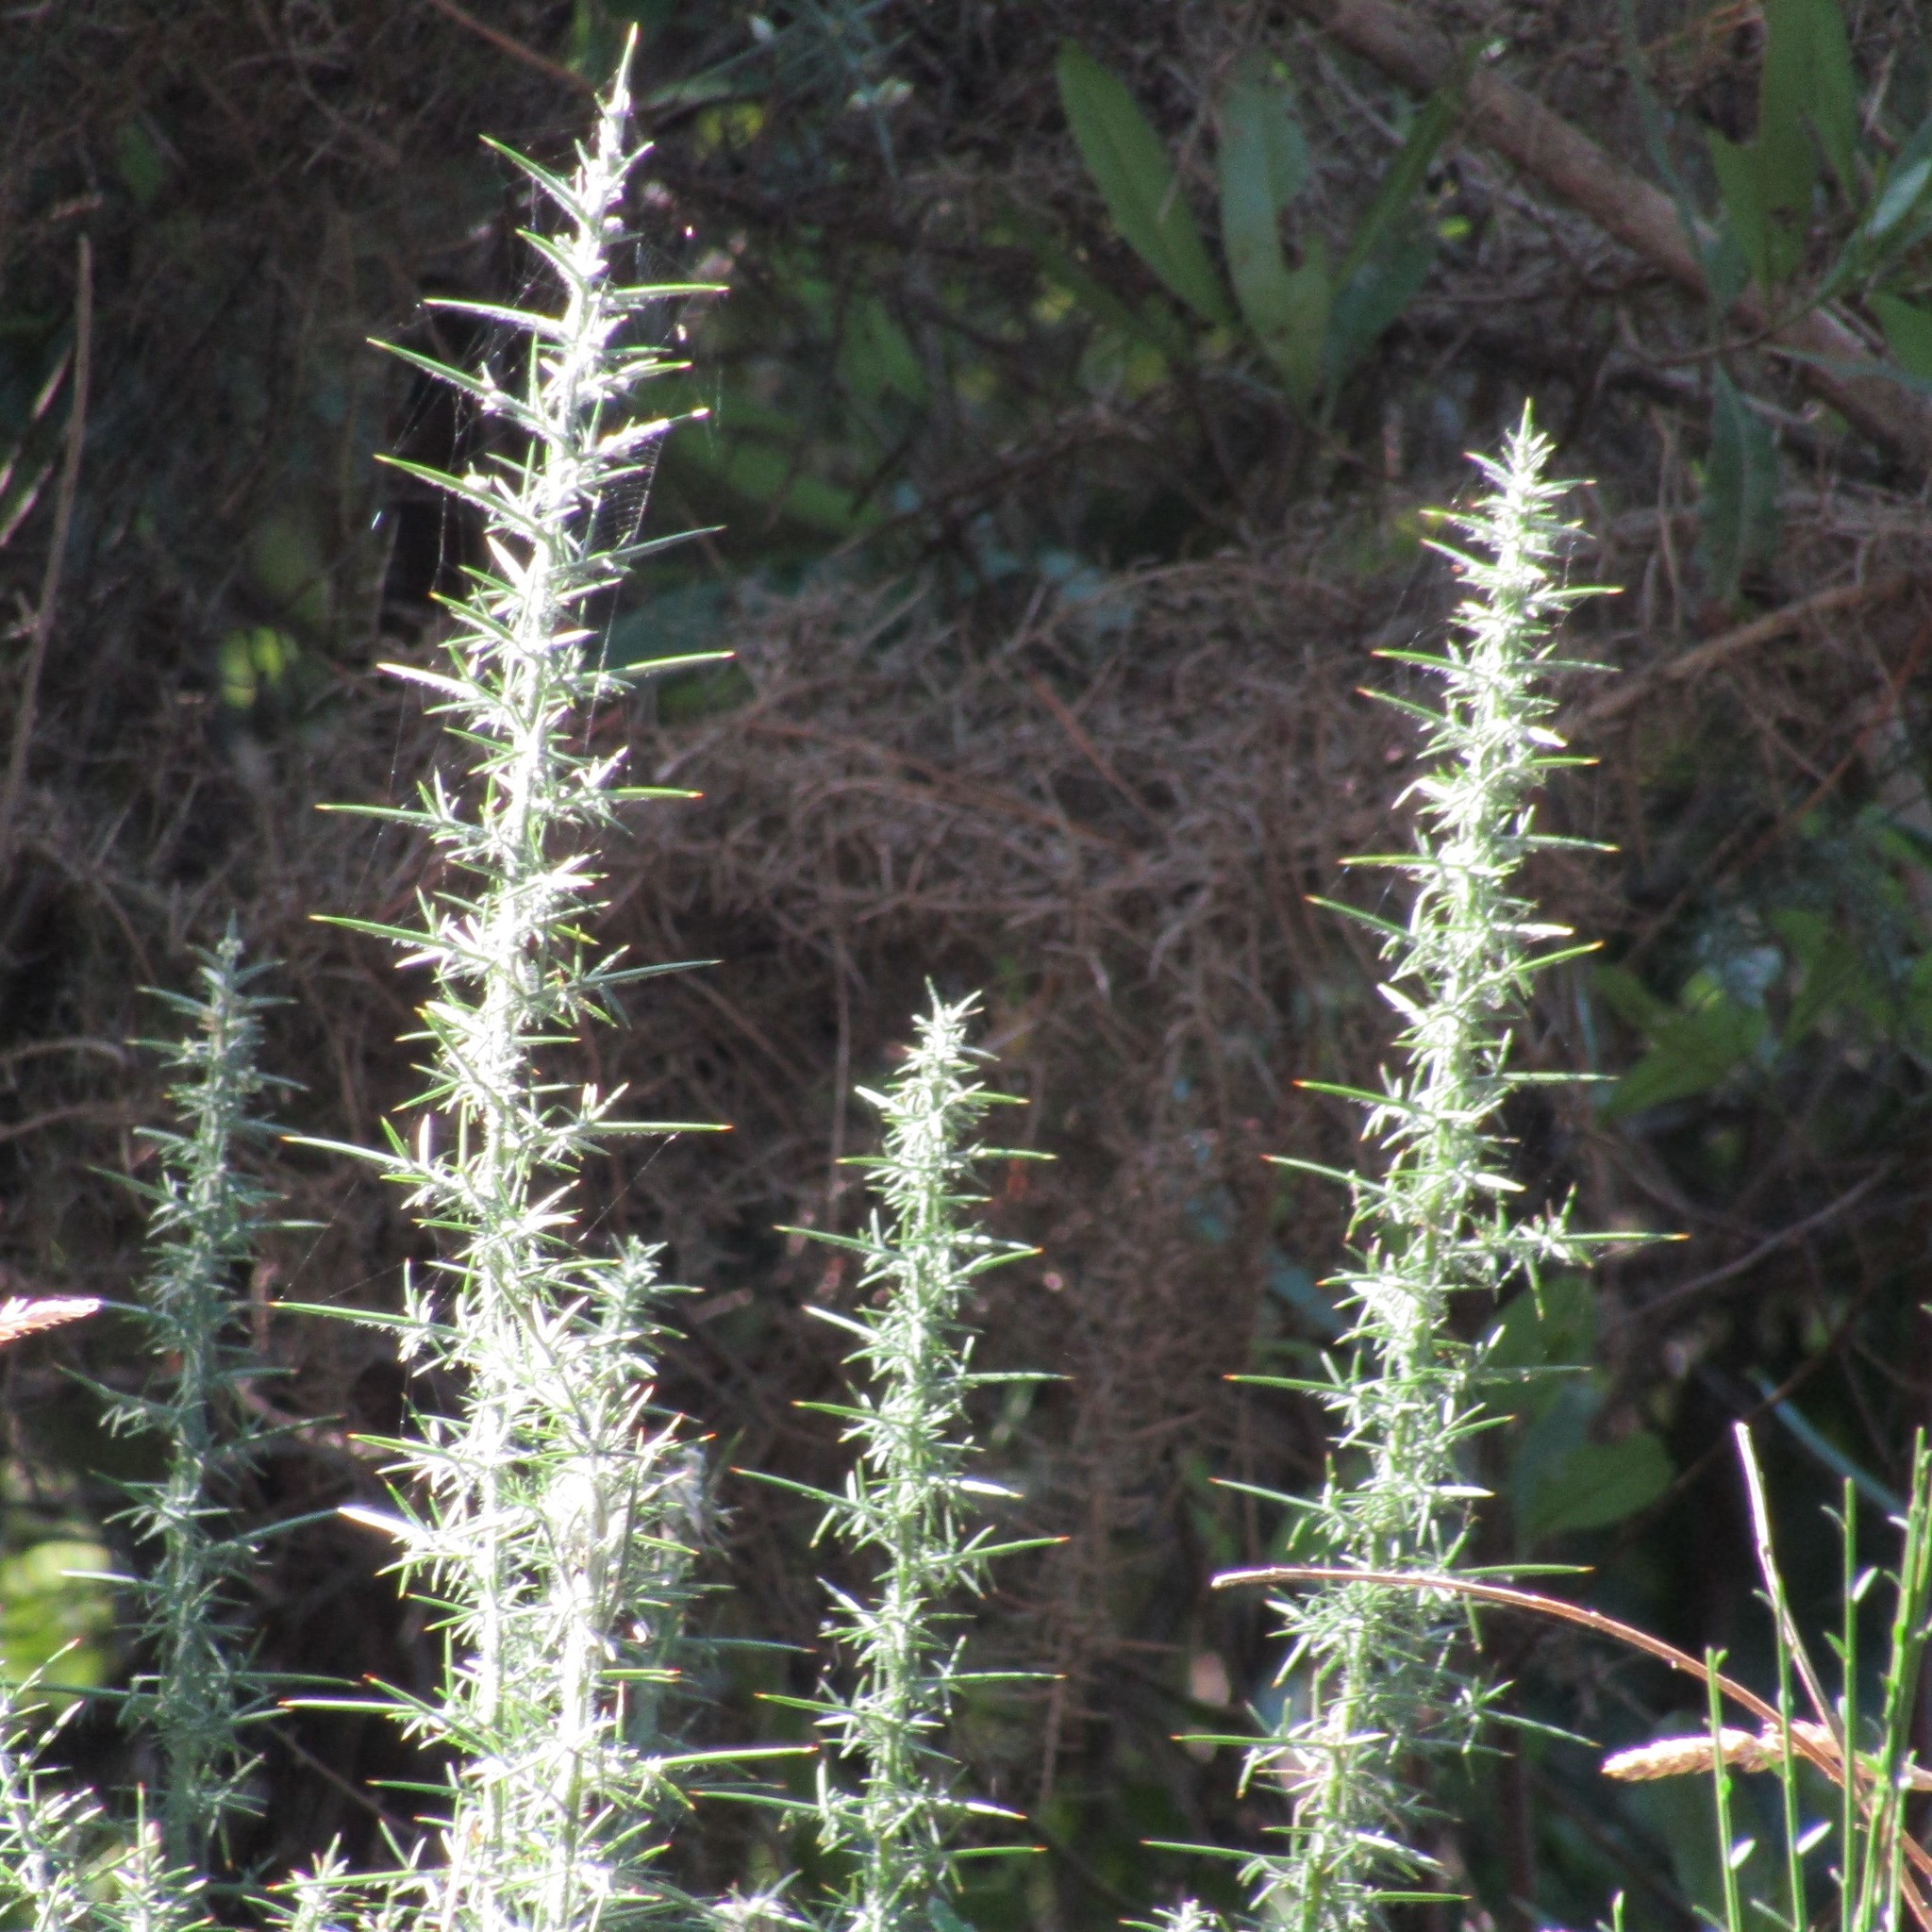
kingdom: Plantae
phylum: Tracheophyta
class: Magnoliopsida
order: Fabales
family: Fabaceae
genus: Ulex
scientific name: Ulex europaeus
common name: Common gorse
